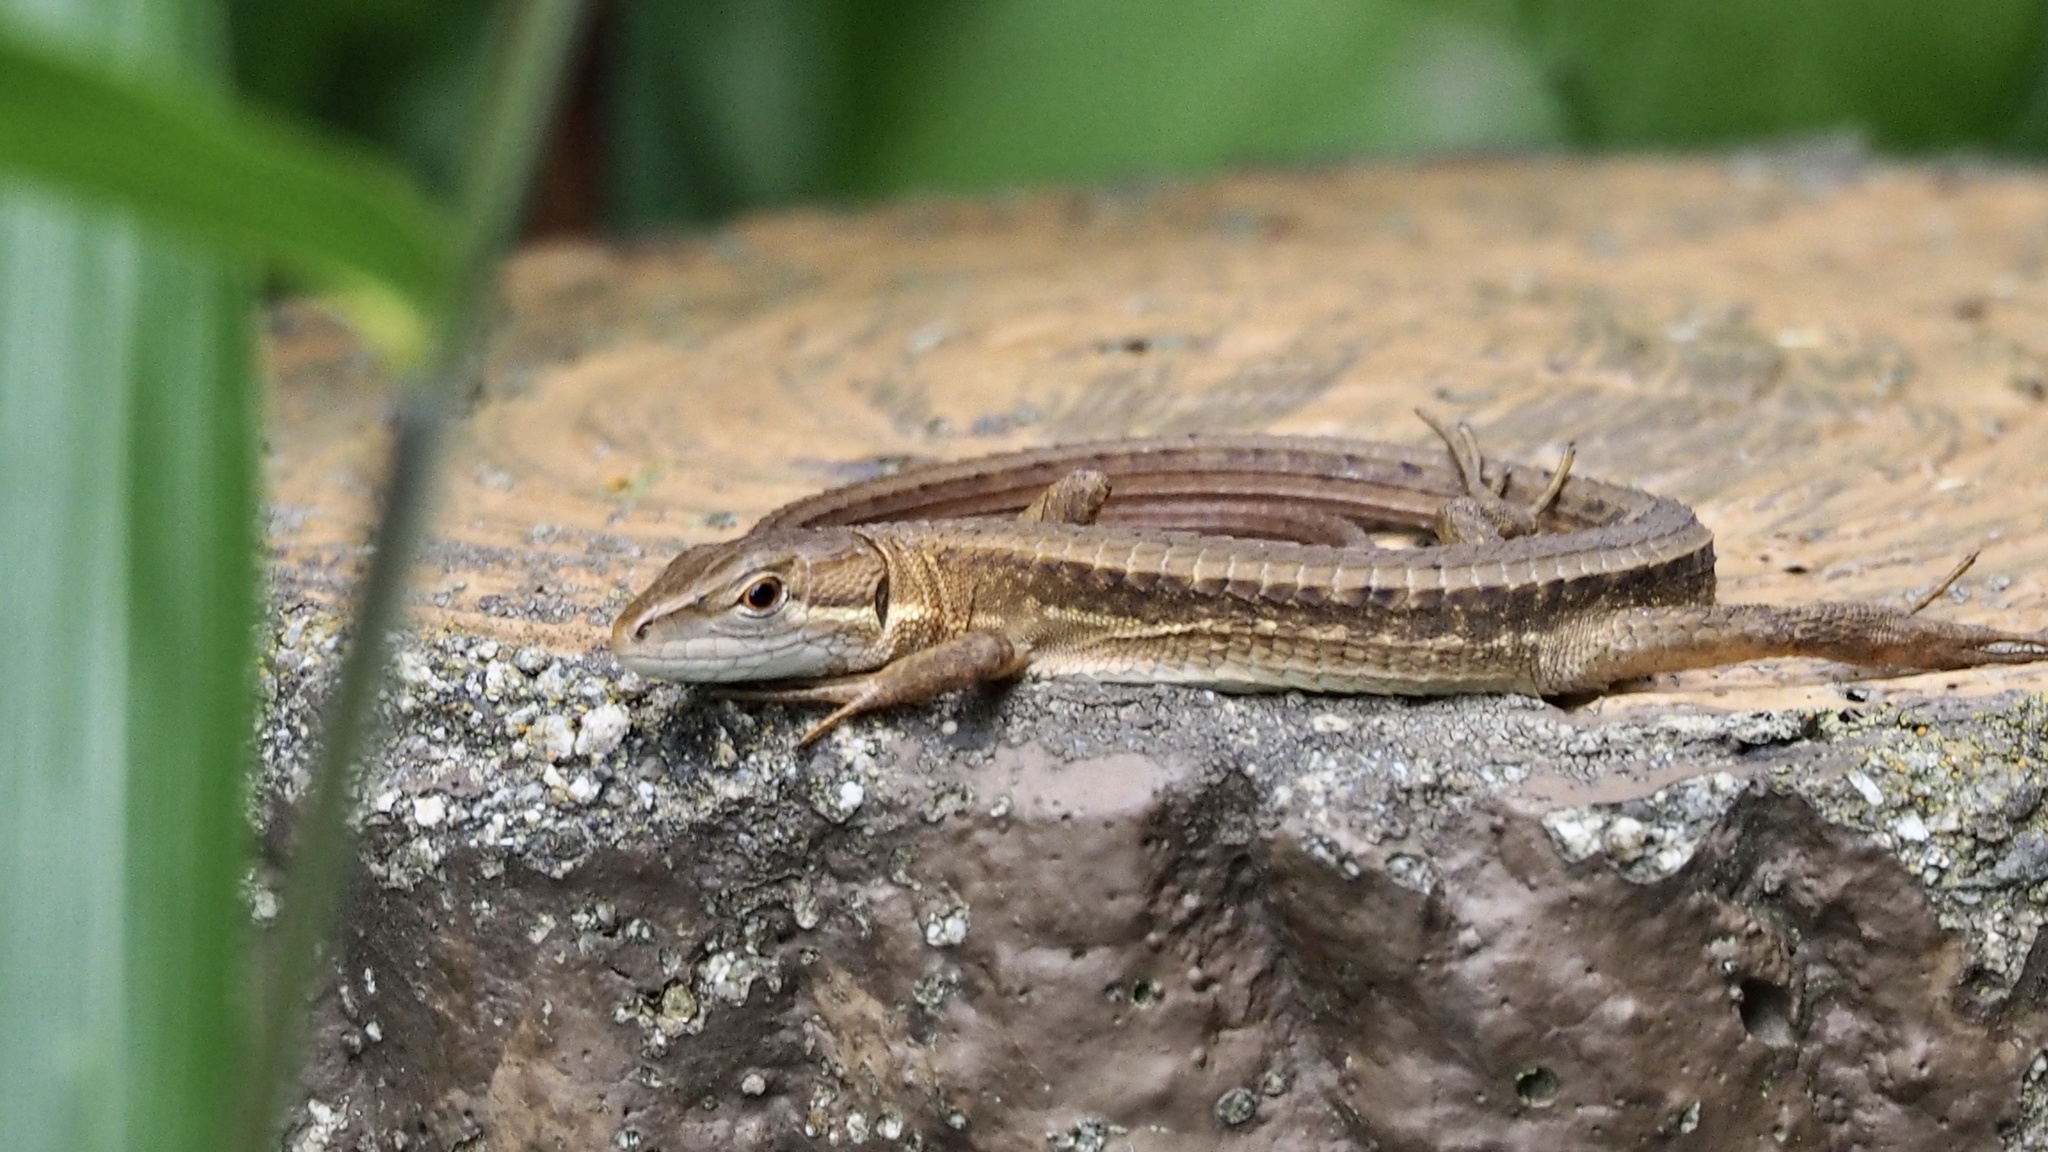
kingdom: Animalia
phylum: Chordata
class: Squamata
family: Lacertidae
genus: Takydromus
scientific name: Takydromus tachydromoides
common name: Japanese grass lizard
